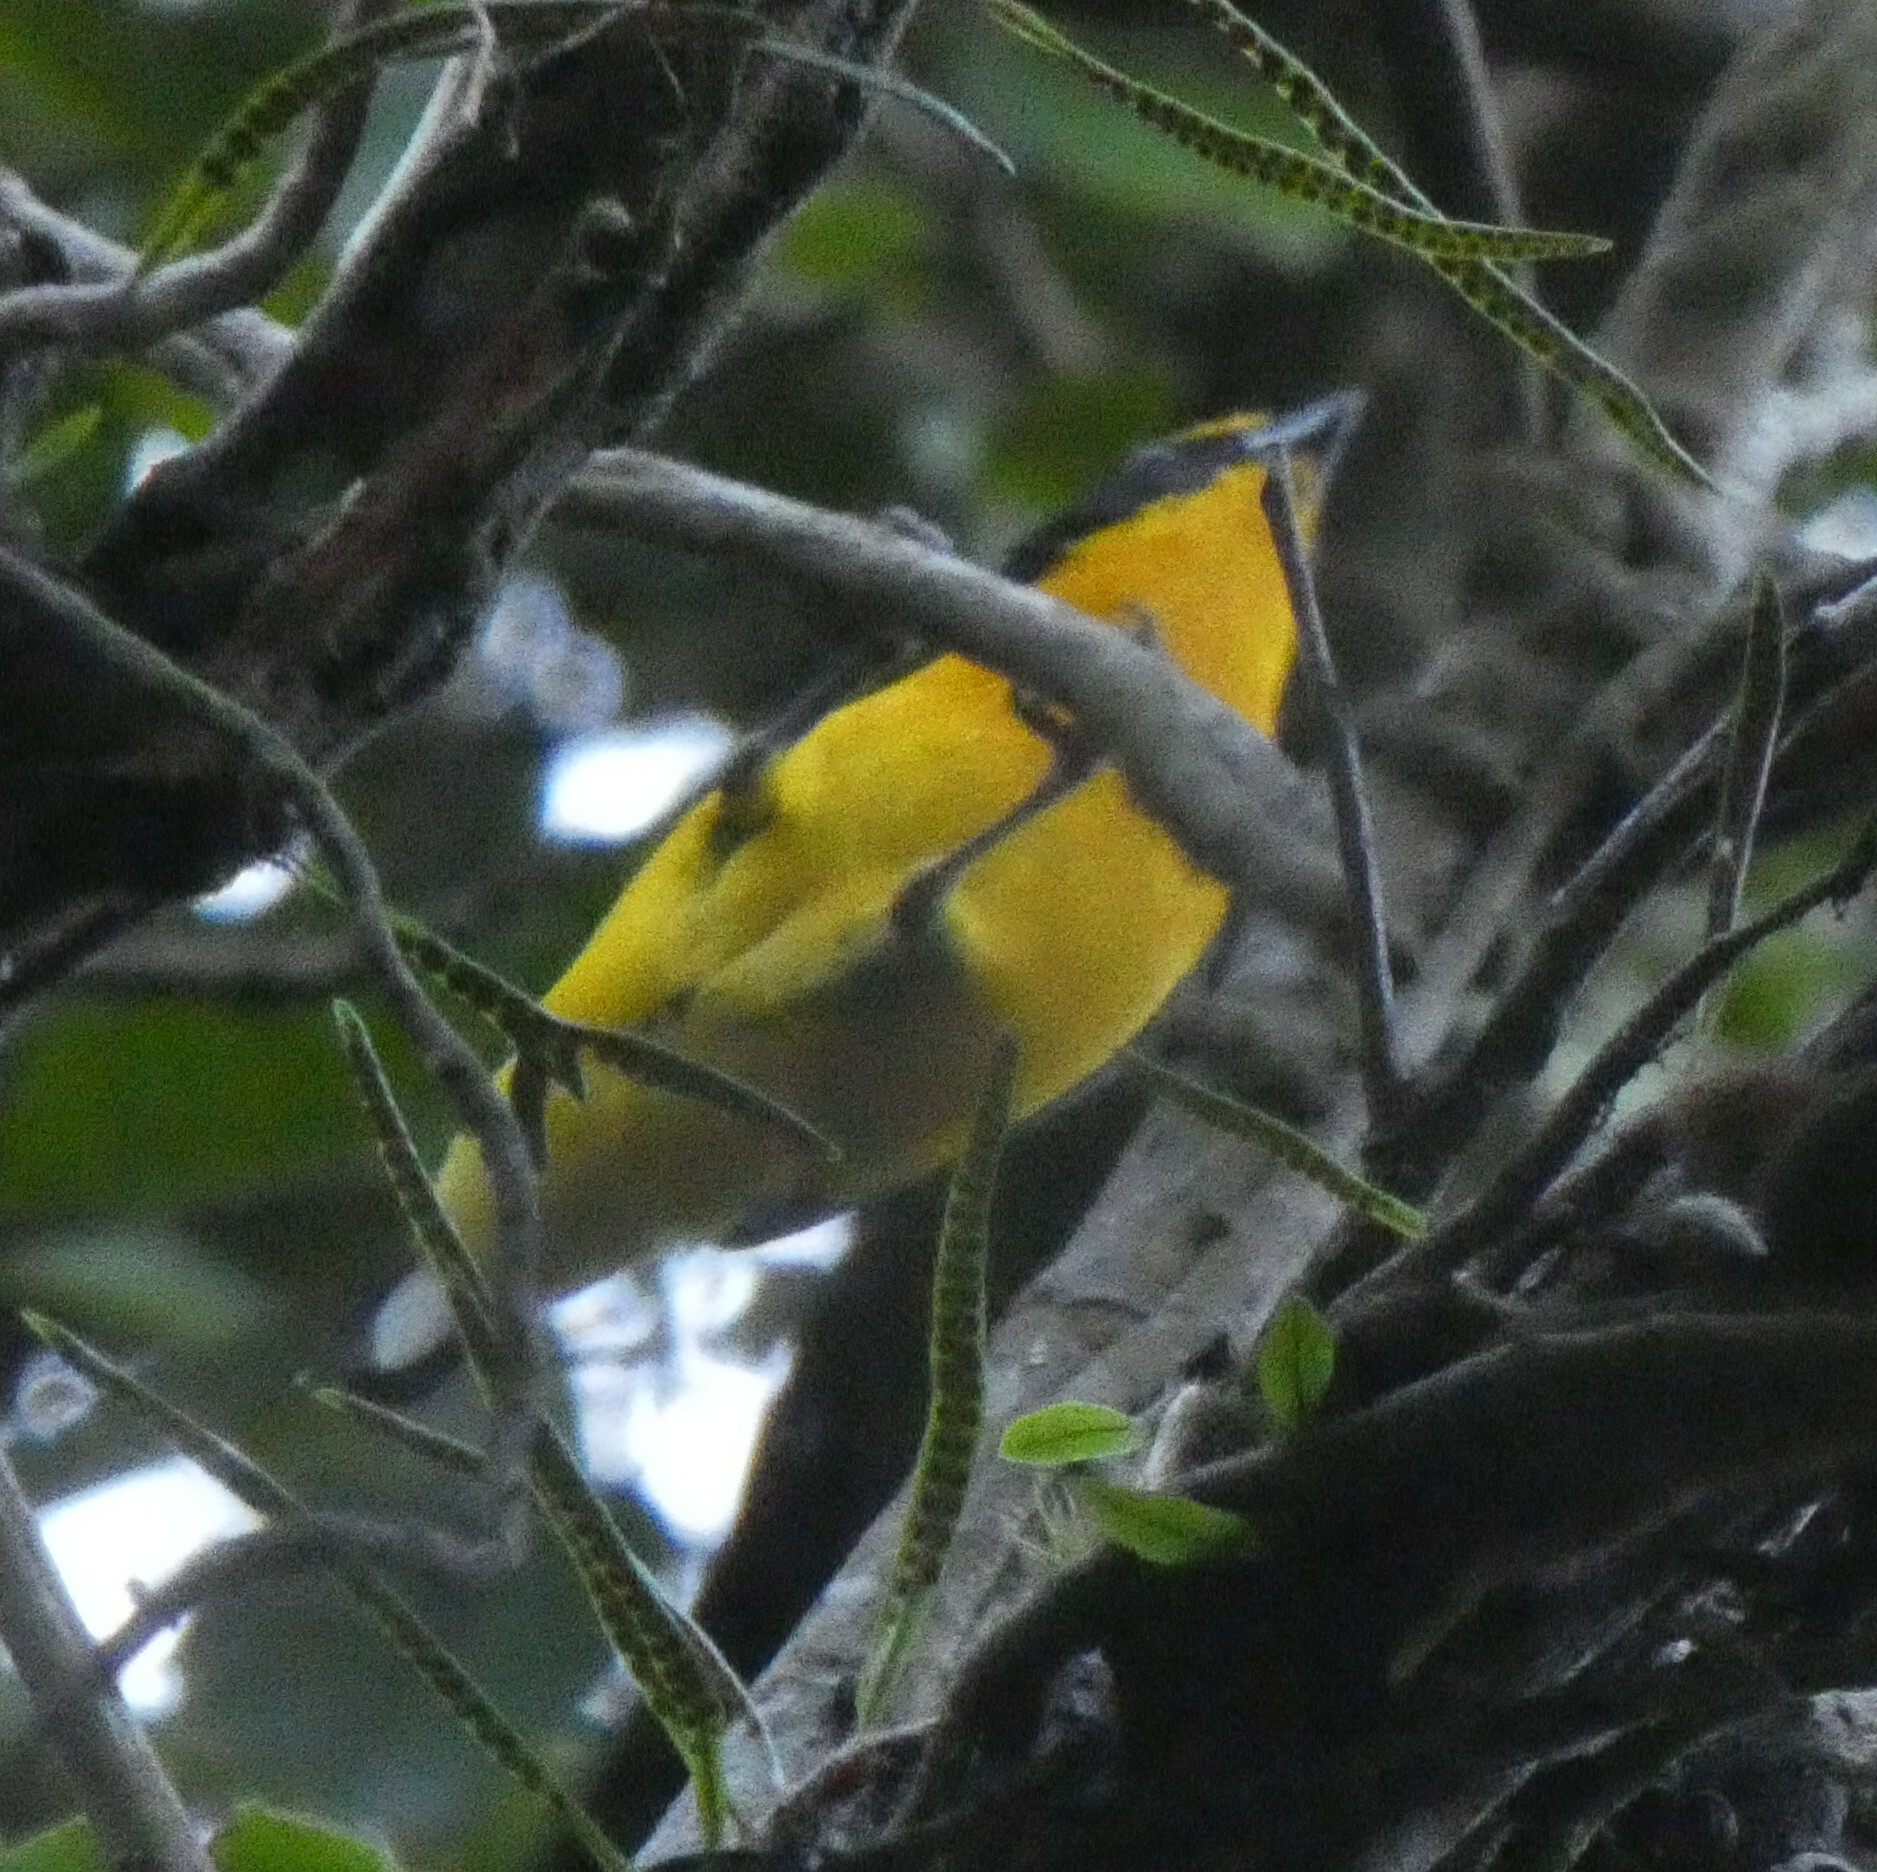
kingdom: Animalia
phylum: Chordata
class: Aves
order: Passeriformes
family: Fringillidae
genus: Euphonia
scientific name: Euphonia violacea
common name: Violaceous euphonia
